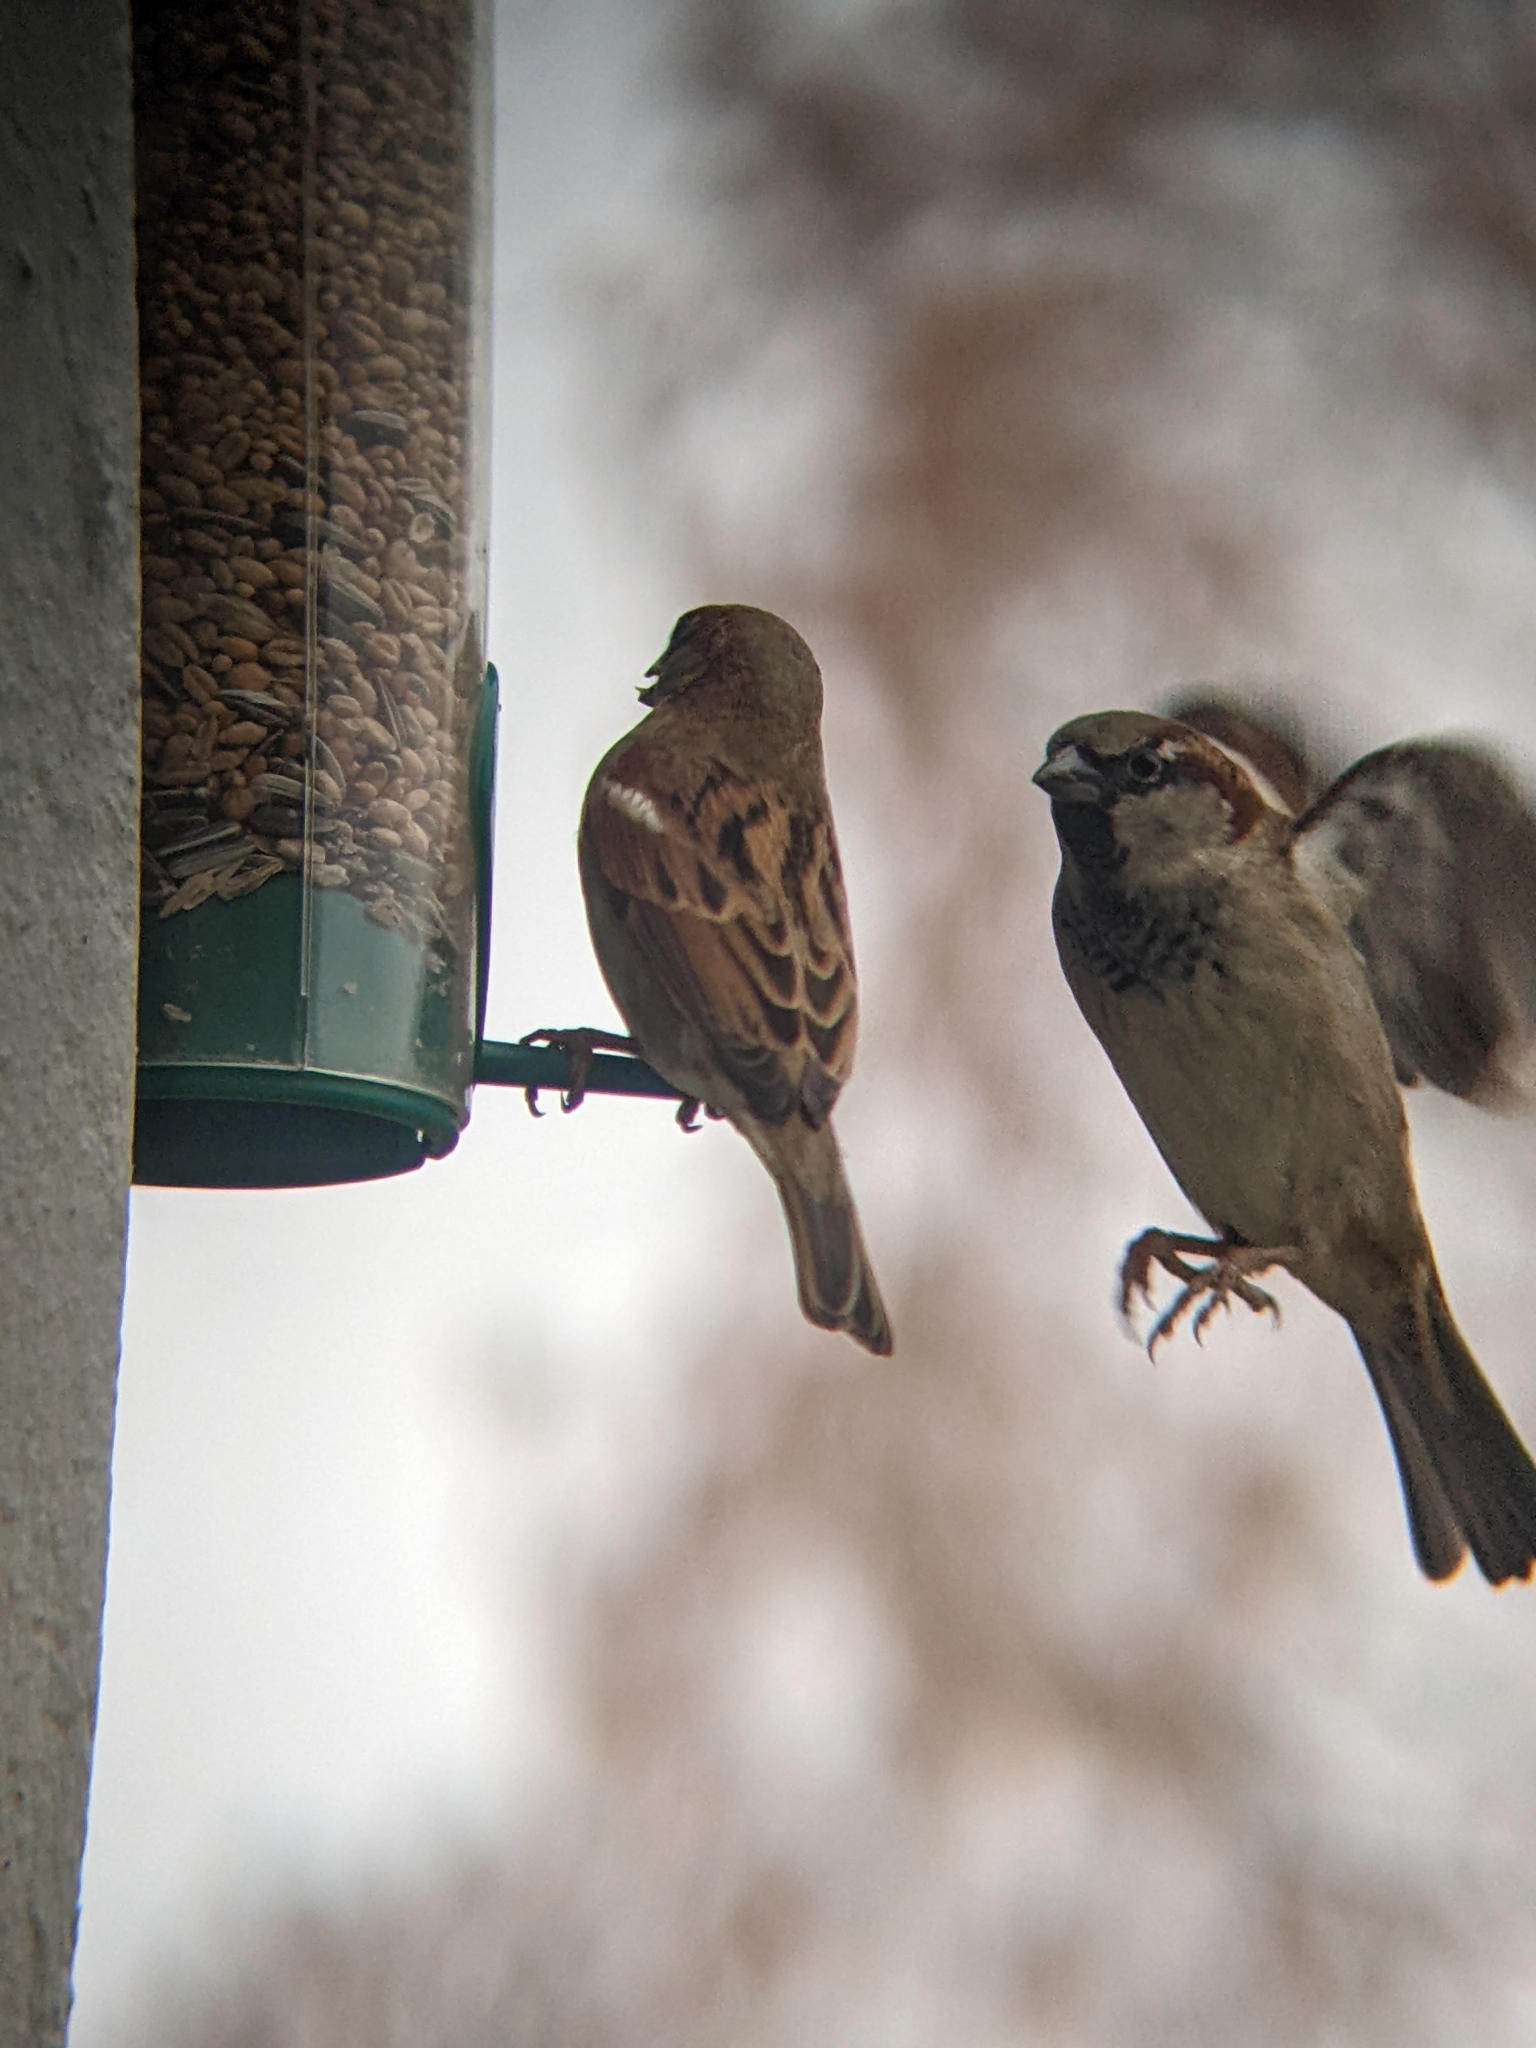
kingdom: Animalia
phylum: Chordata
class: Aves
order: Passeriformes
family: Passeridae
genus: Passer
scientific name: Passer domesticus
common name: House sparrow
